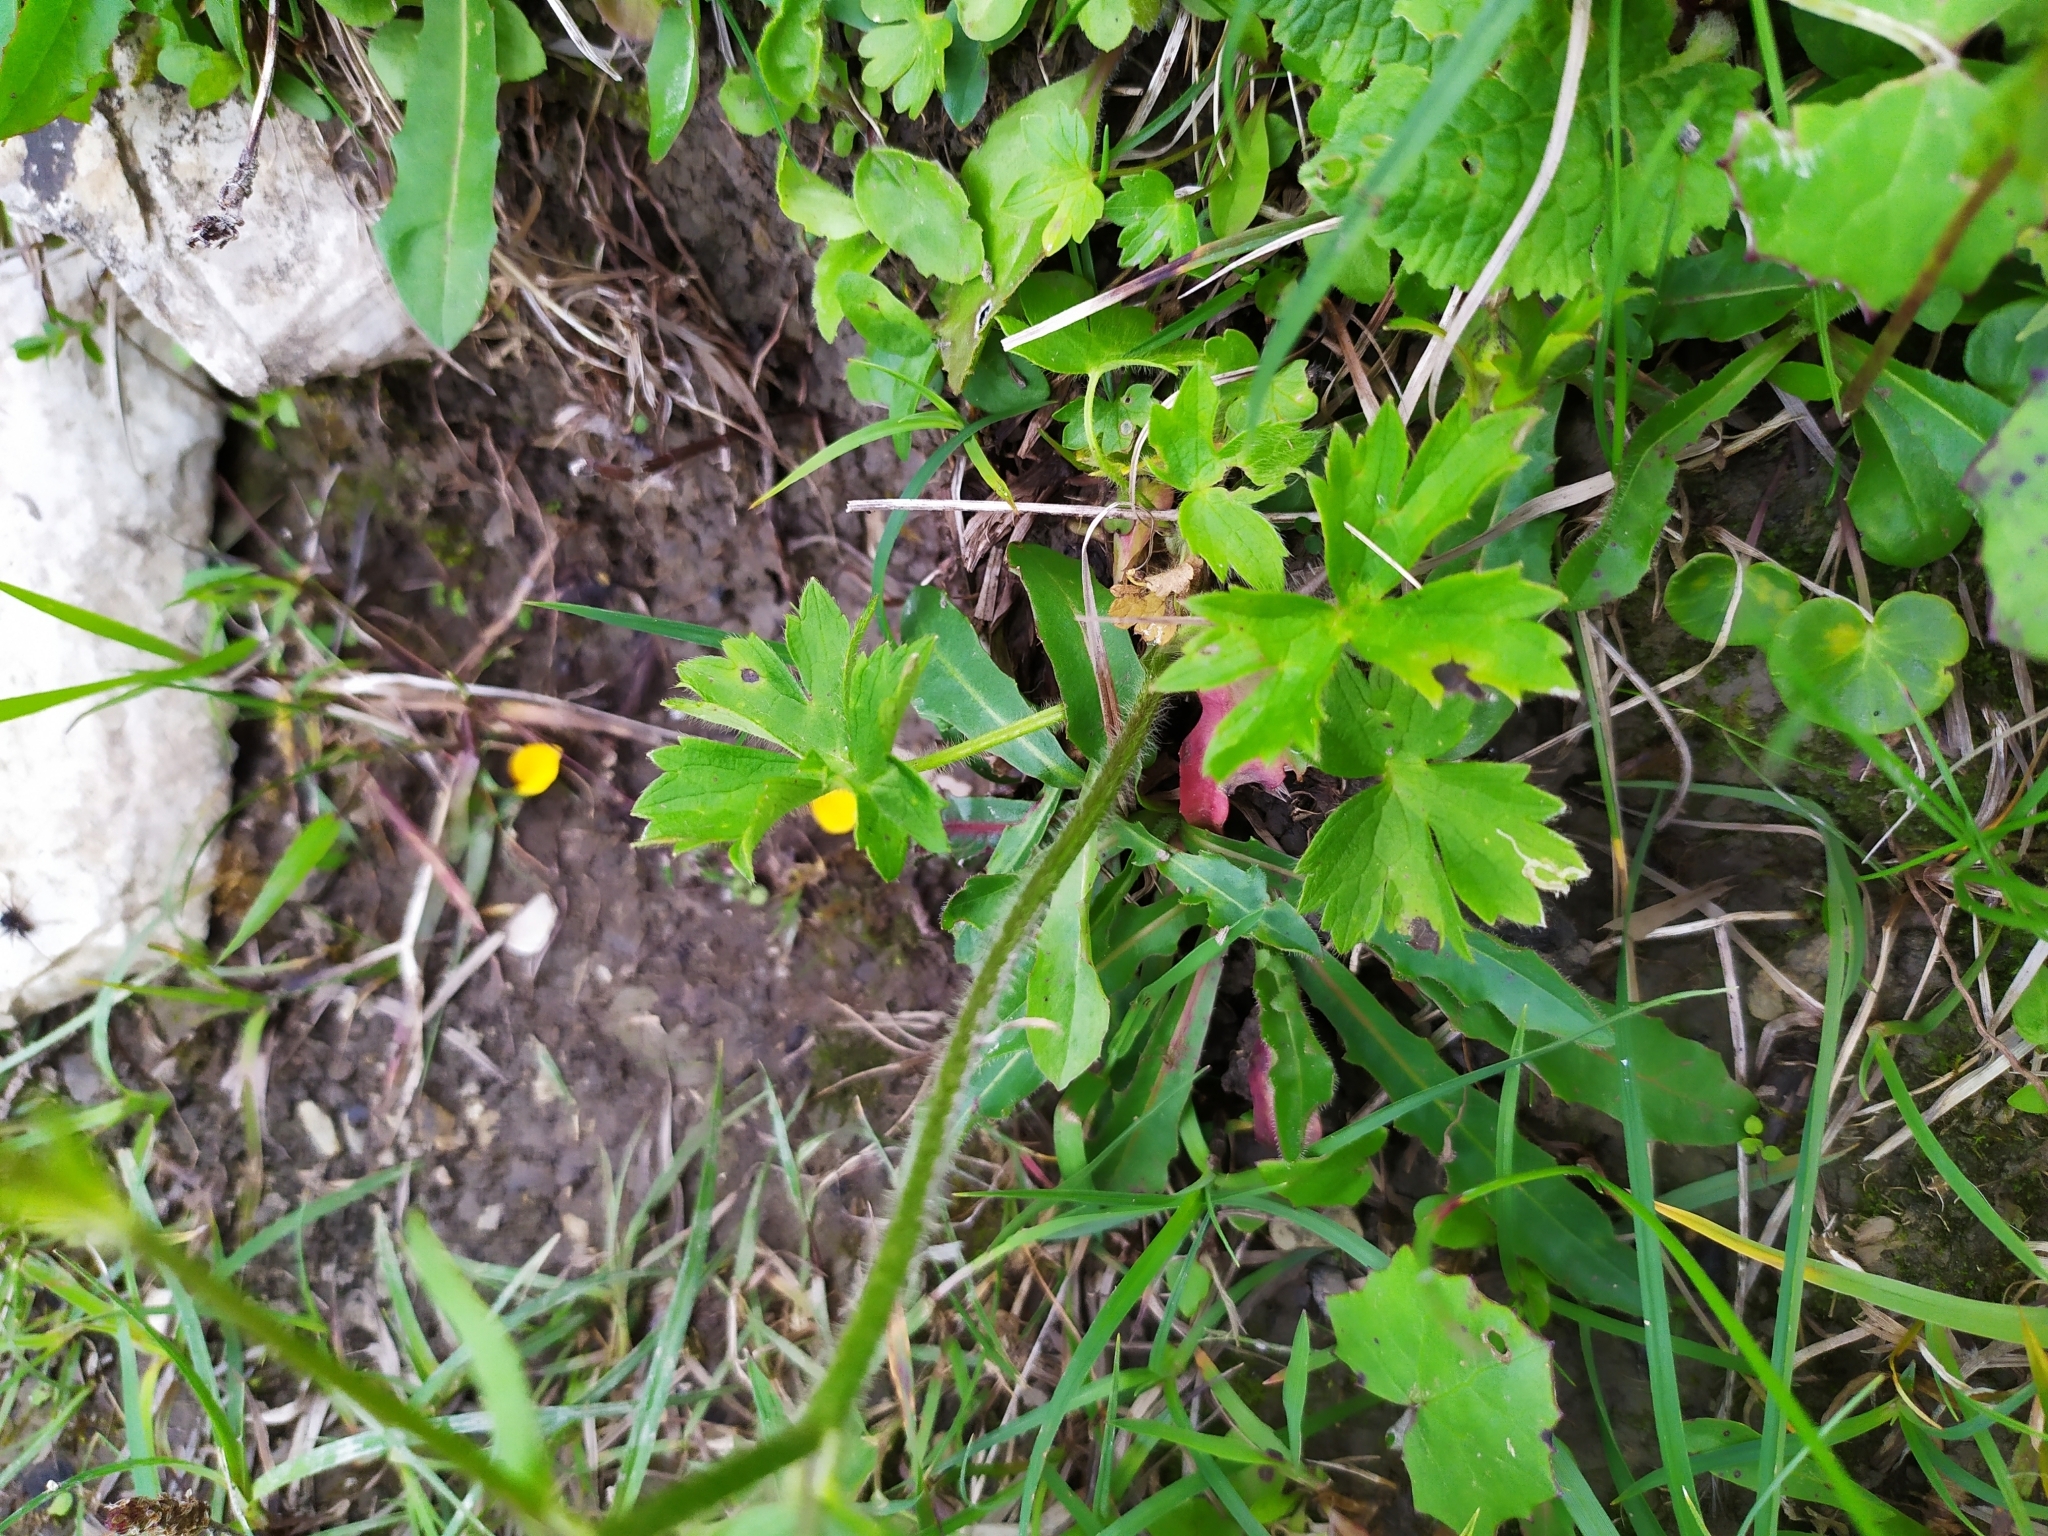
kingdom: Plantae
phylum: Tracheophyta
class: Magnoliopsida
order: Ranunculales
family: Ranunculaceae
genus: Ranunculus
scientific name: Ranunculus lanuginosus
